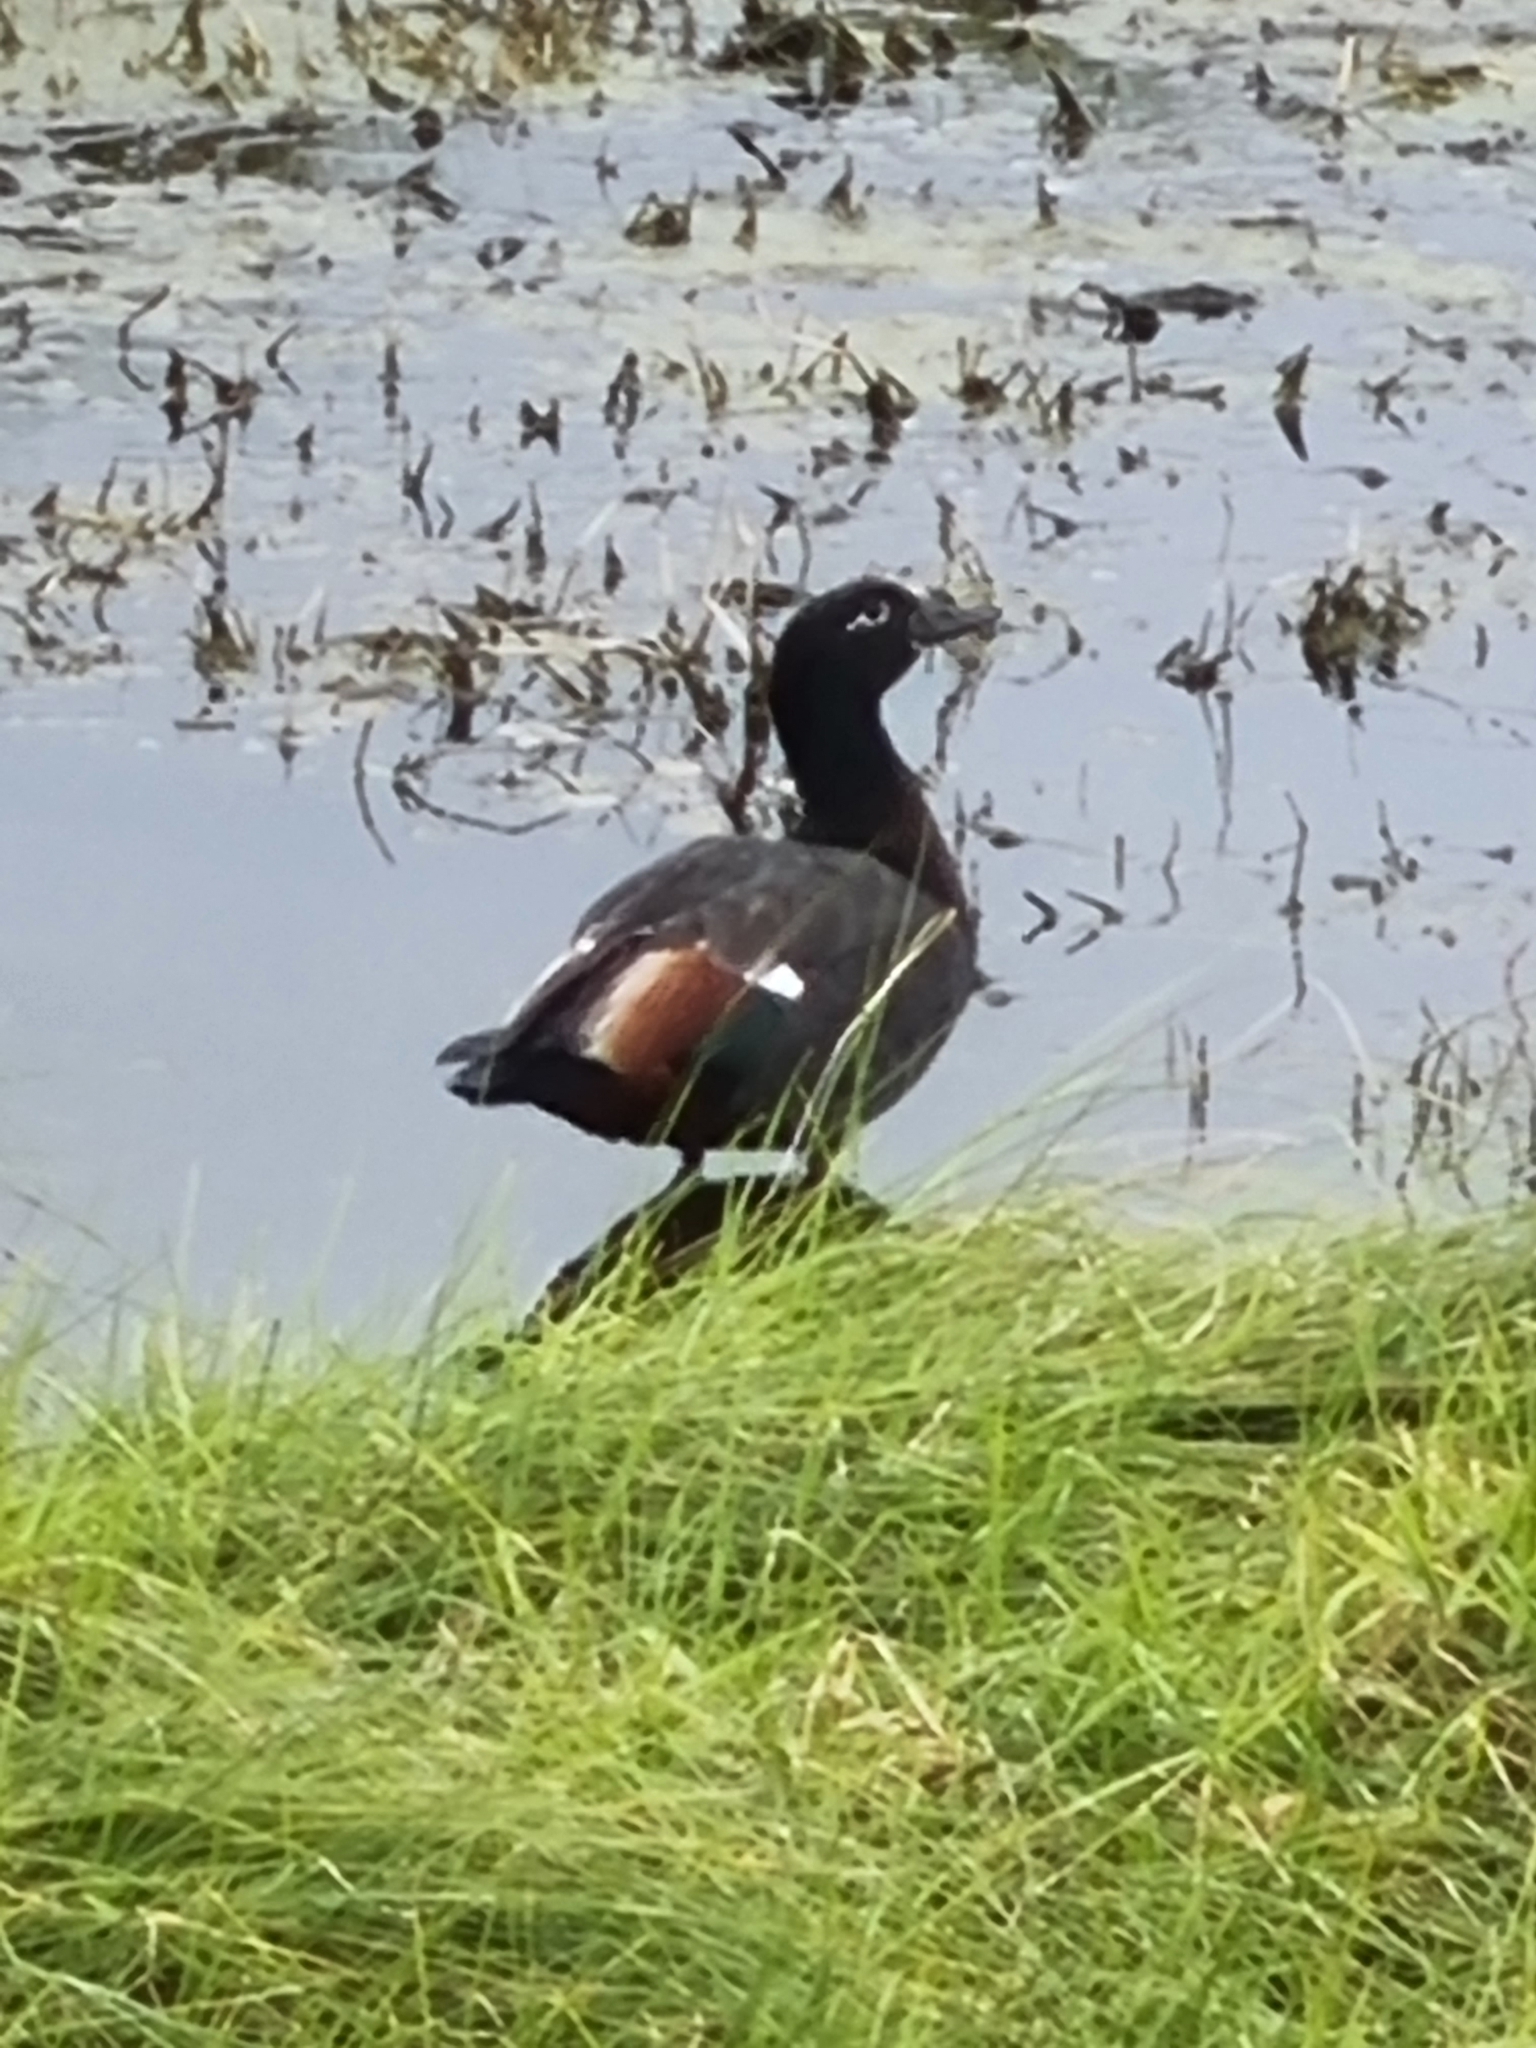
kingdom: Animalia
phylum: Chordata
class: Aves
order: Anseriformes
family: Anatidae
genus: Tadorna
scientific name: Tadorna variegata
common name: Paradise shelduck
